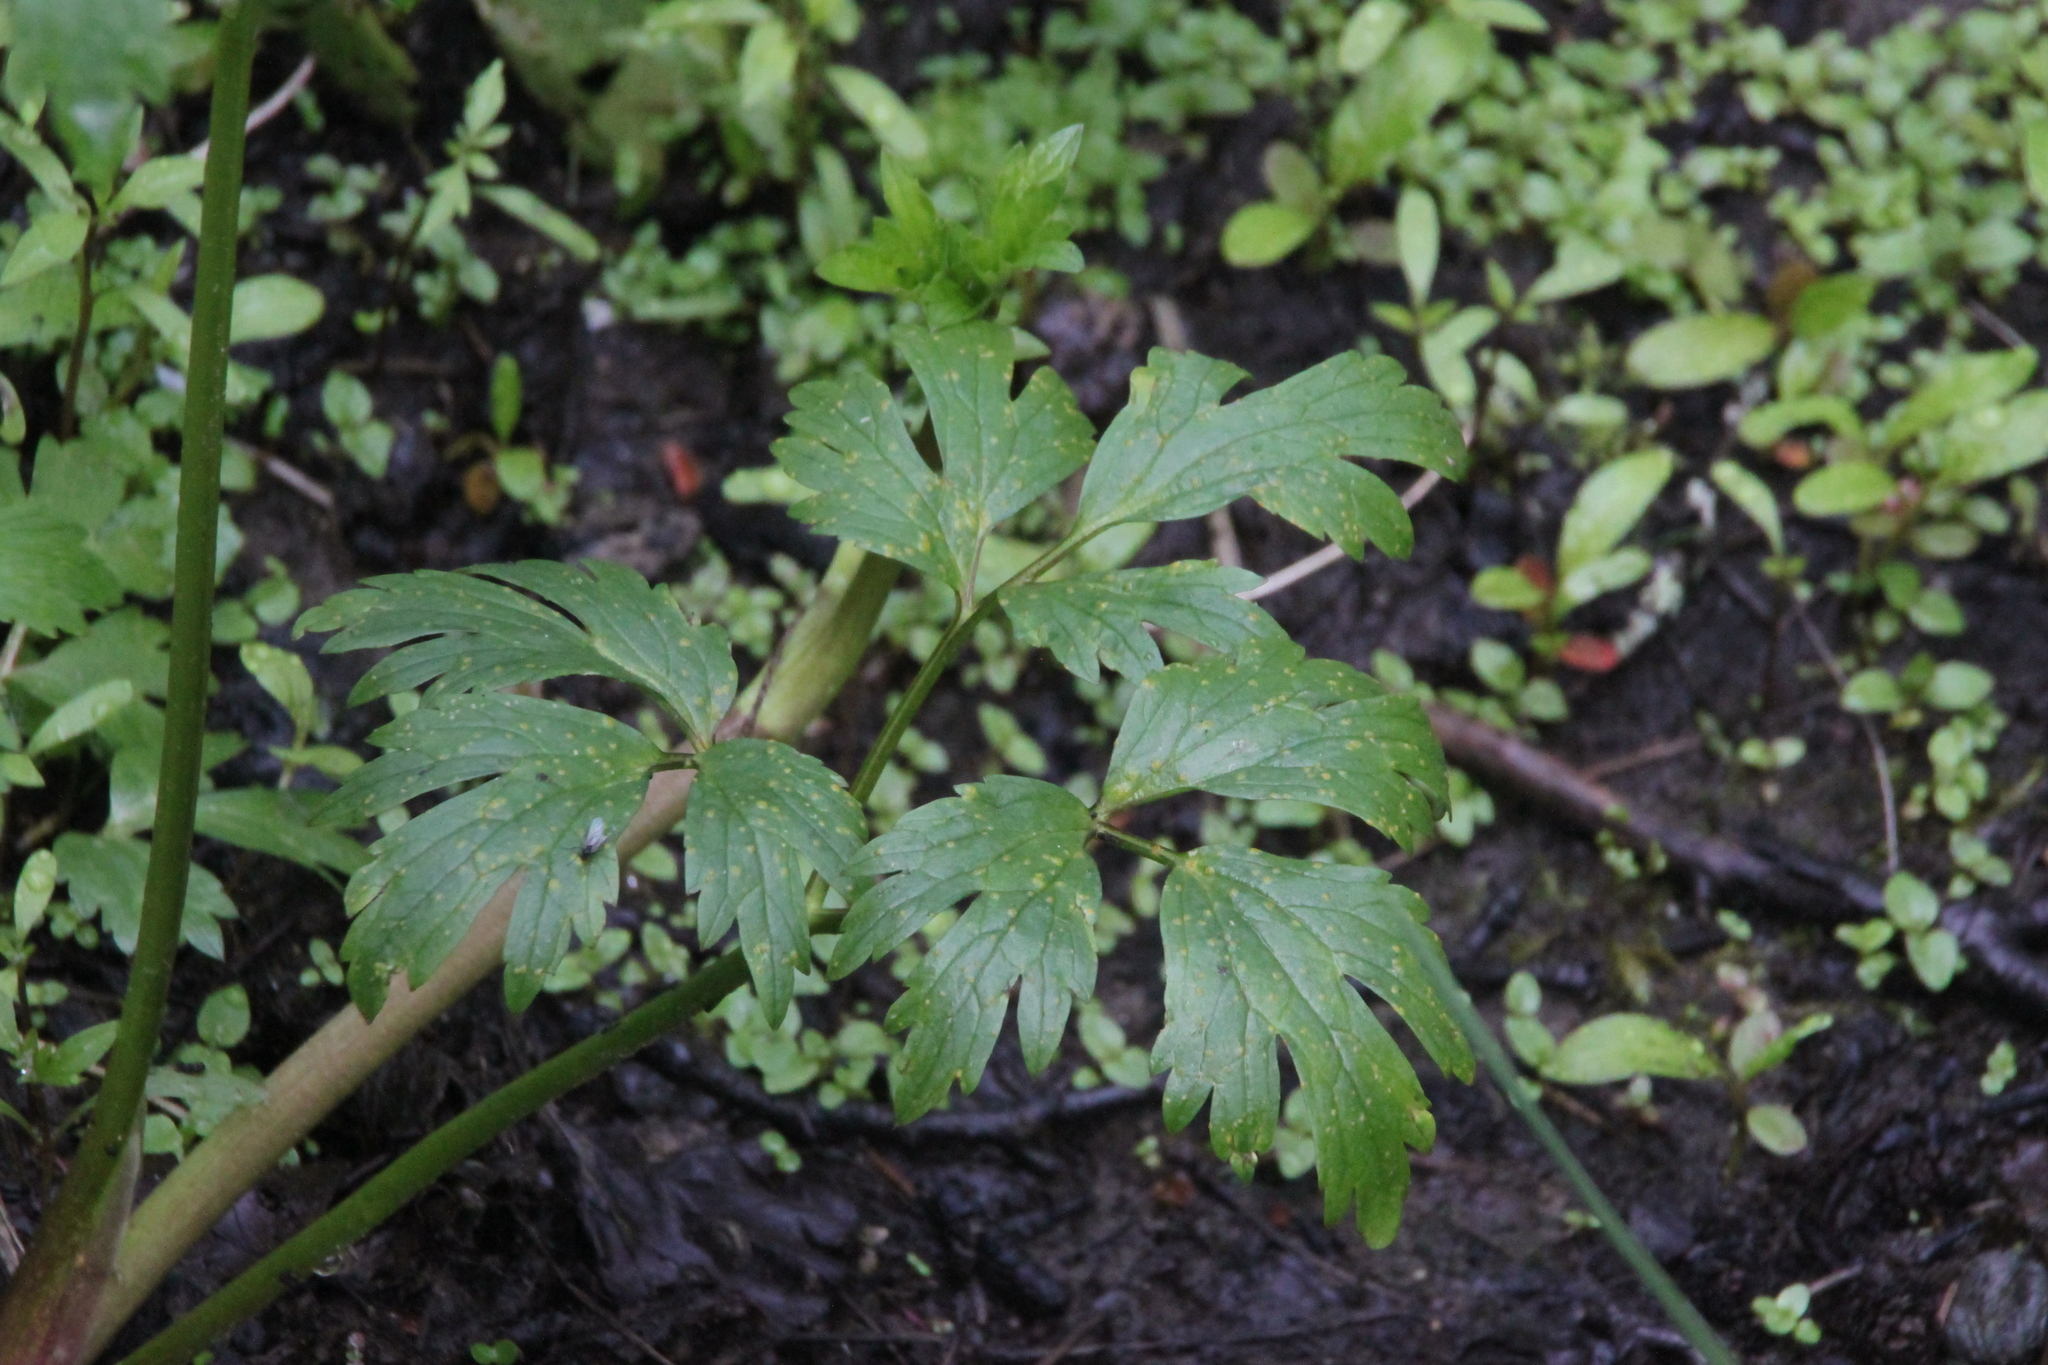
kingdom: Plantae
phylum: Tracheophyta
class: Magnoliopsida
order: Ranunculales
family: Ranunculaceae
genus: Ranunculus
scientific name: Ranunculus repens
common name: Creeping buttercup
